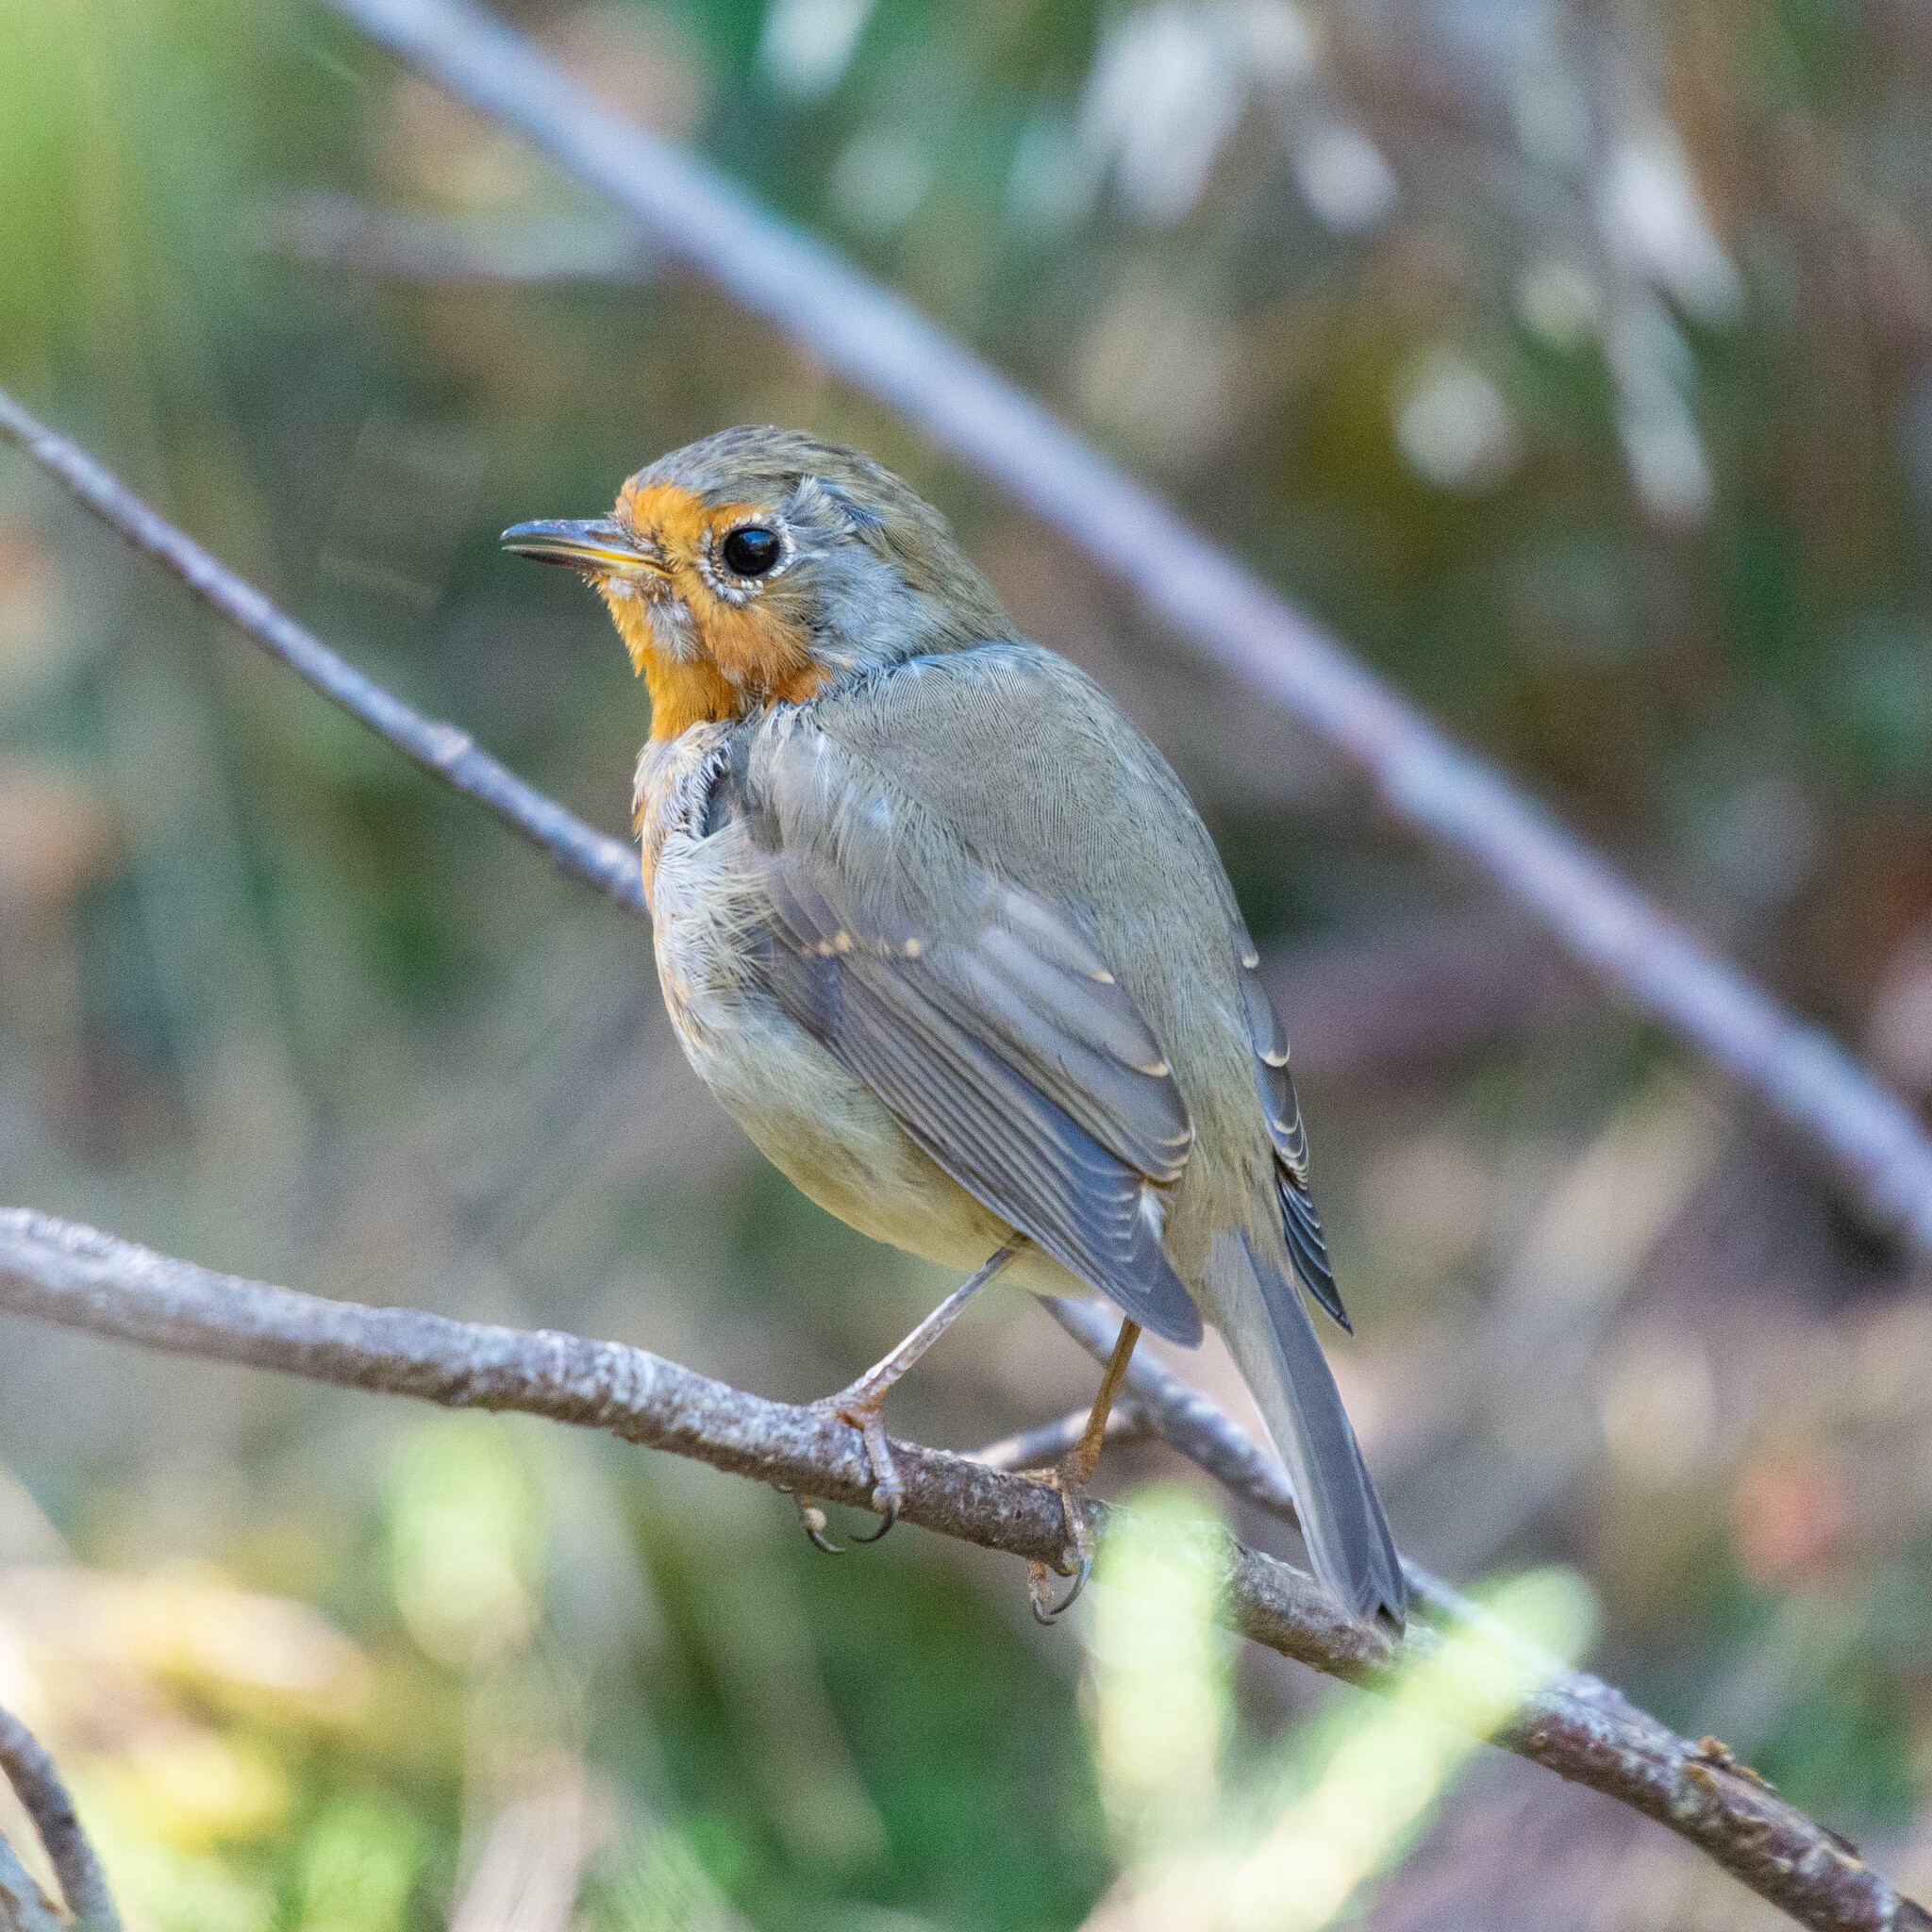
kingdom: Animalia
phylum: Chordata
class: Aves
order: Passeriformes
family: Muscicapidae
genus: Erithacus
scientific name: Erithacus rubecula
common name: European robin
